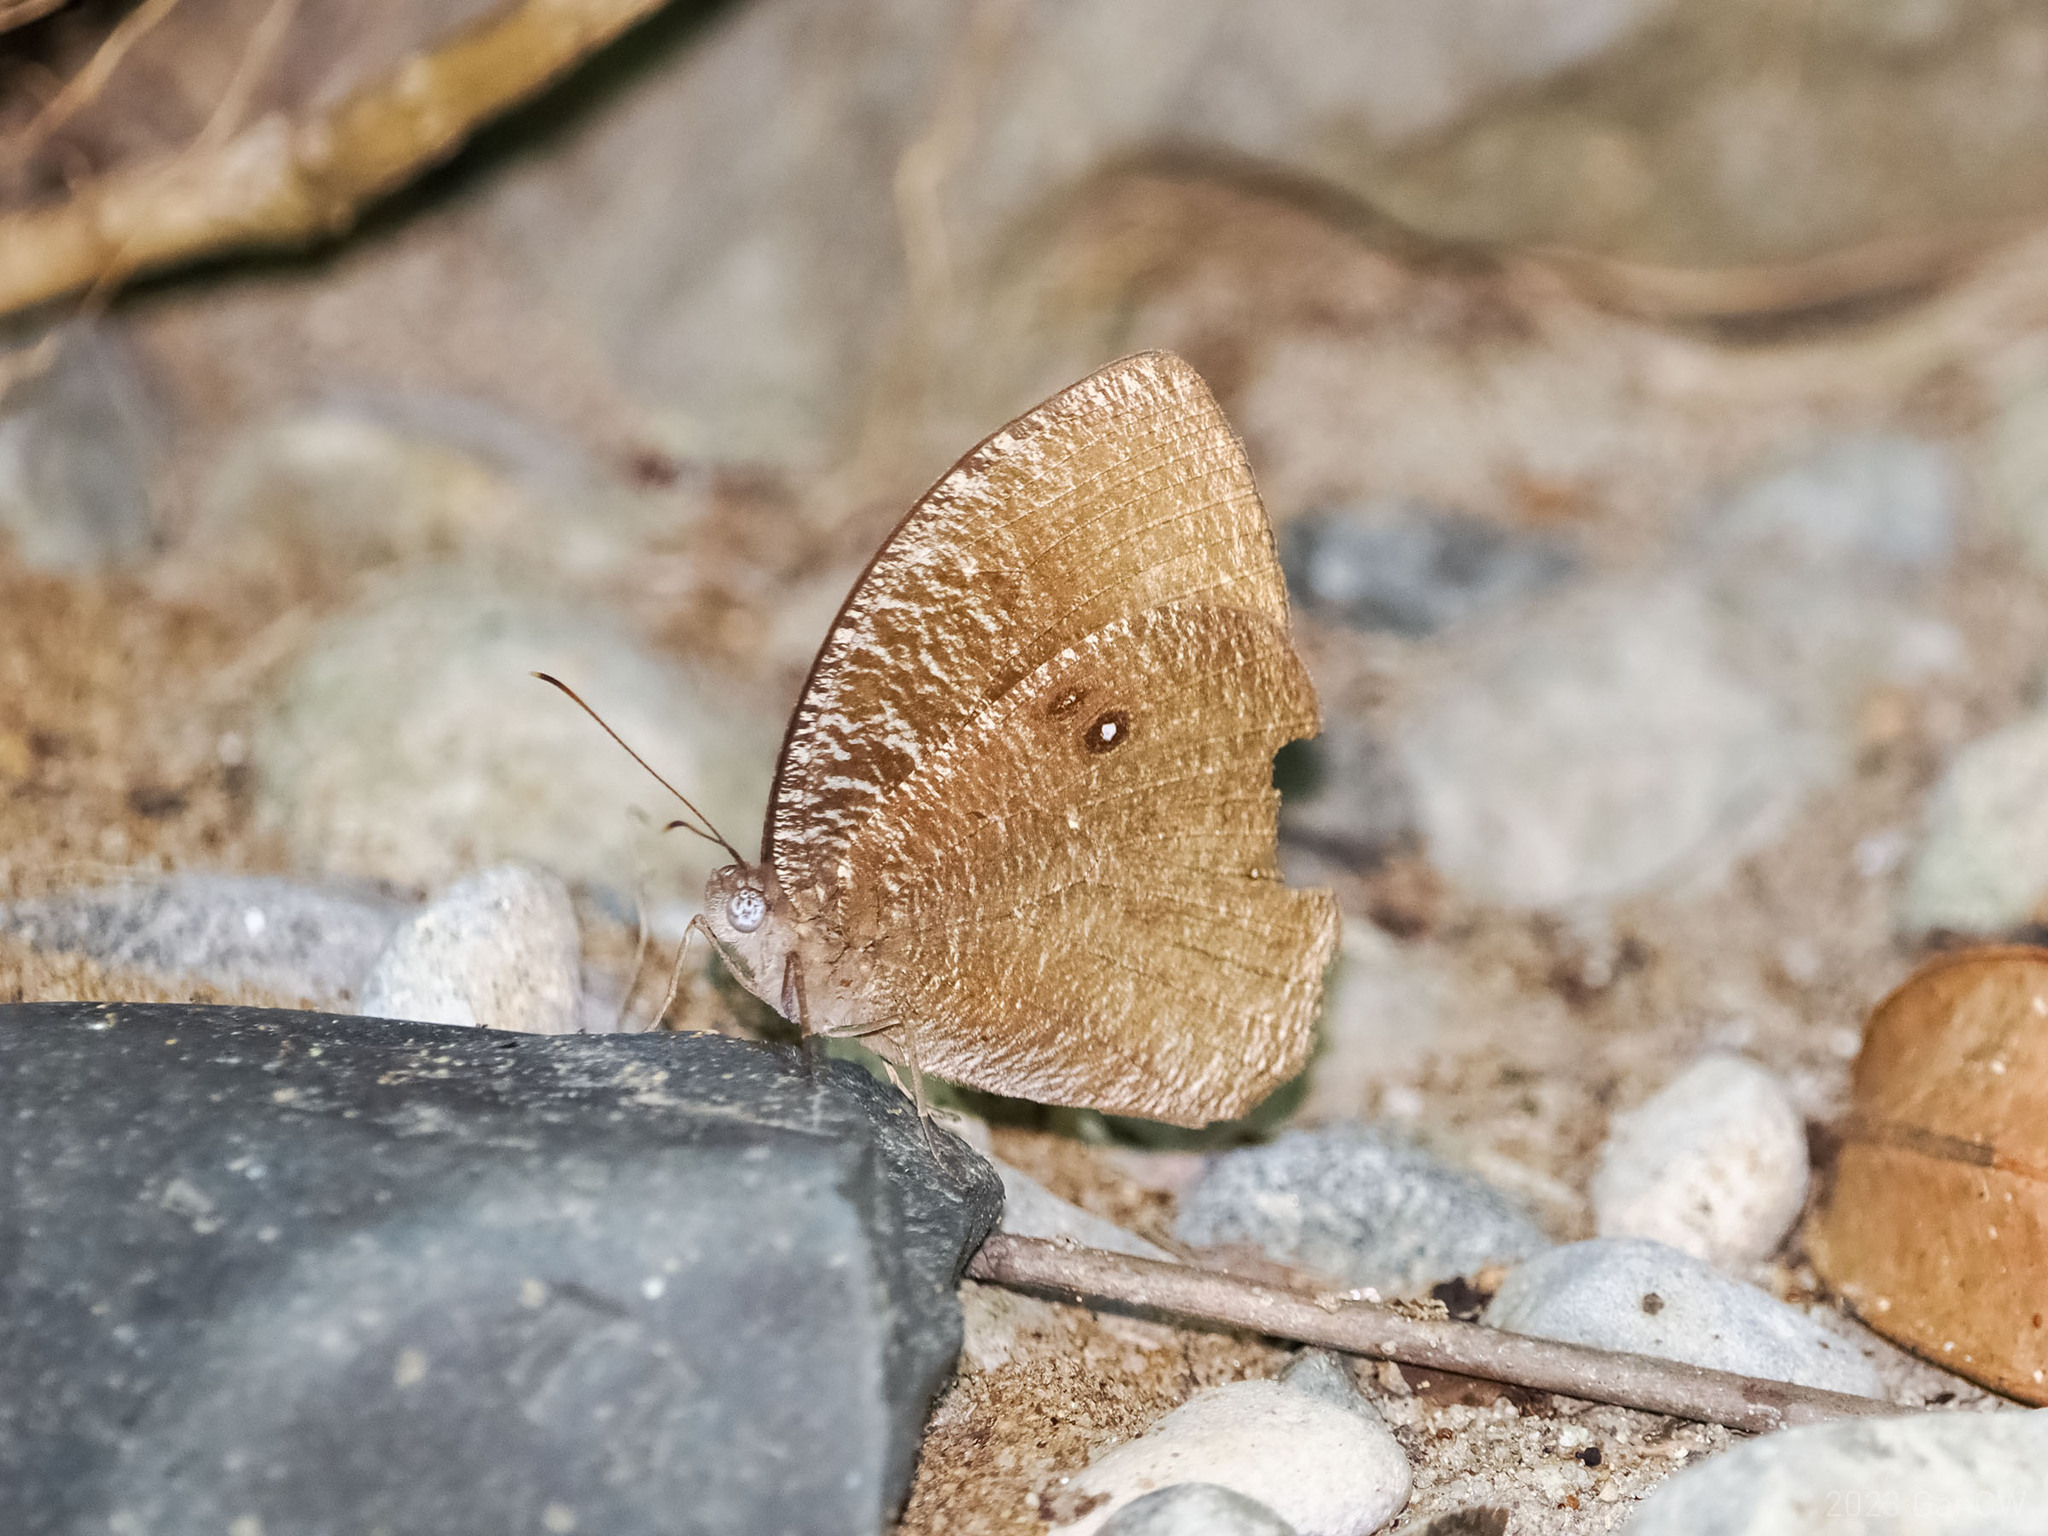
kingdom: Animalia
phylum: Arthropoda
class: Insecta
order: Lepidoptera
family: Nymphalidae
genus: Bletogona
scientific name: Bletogona mycalesis
